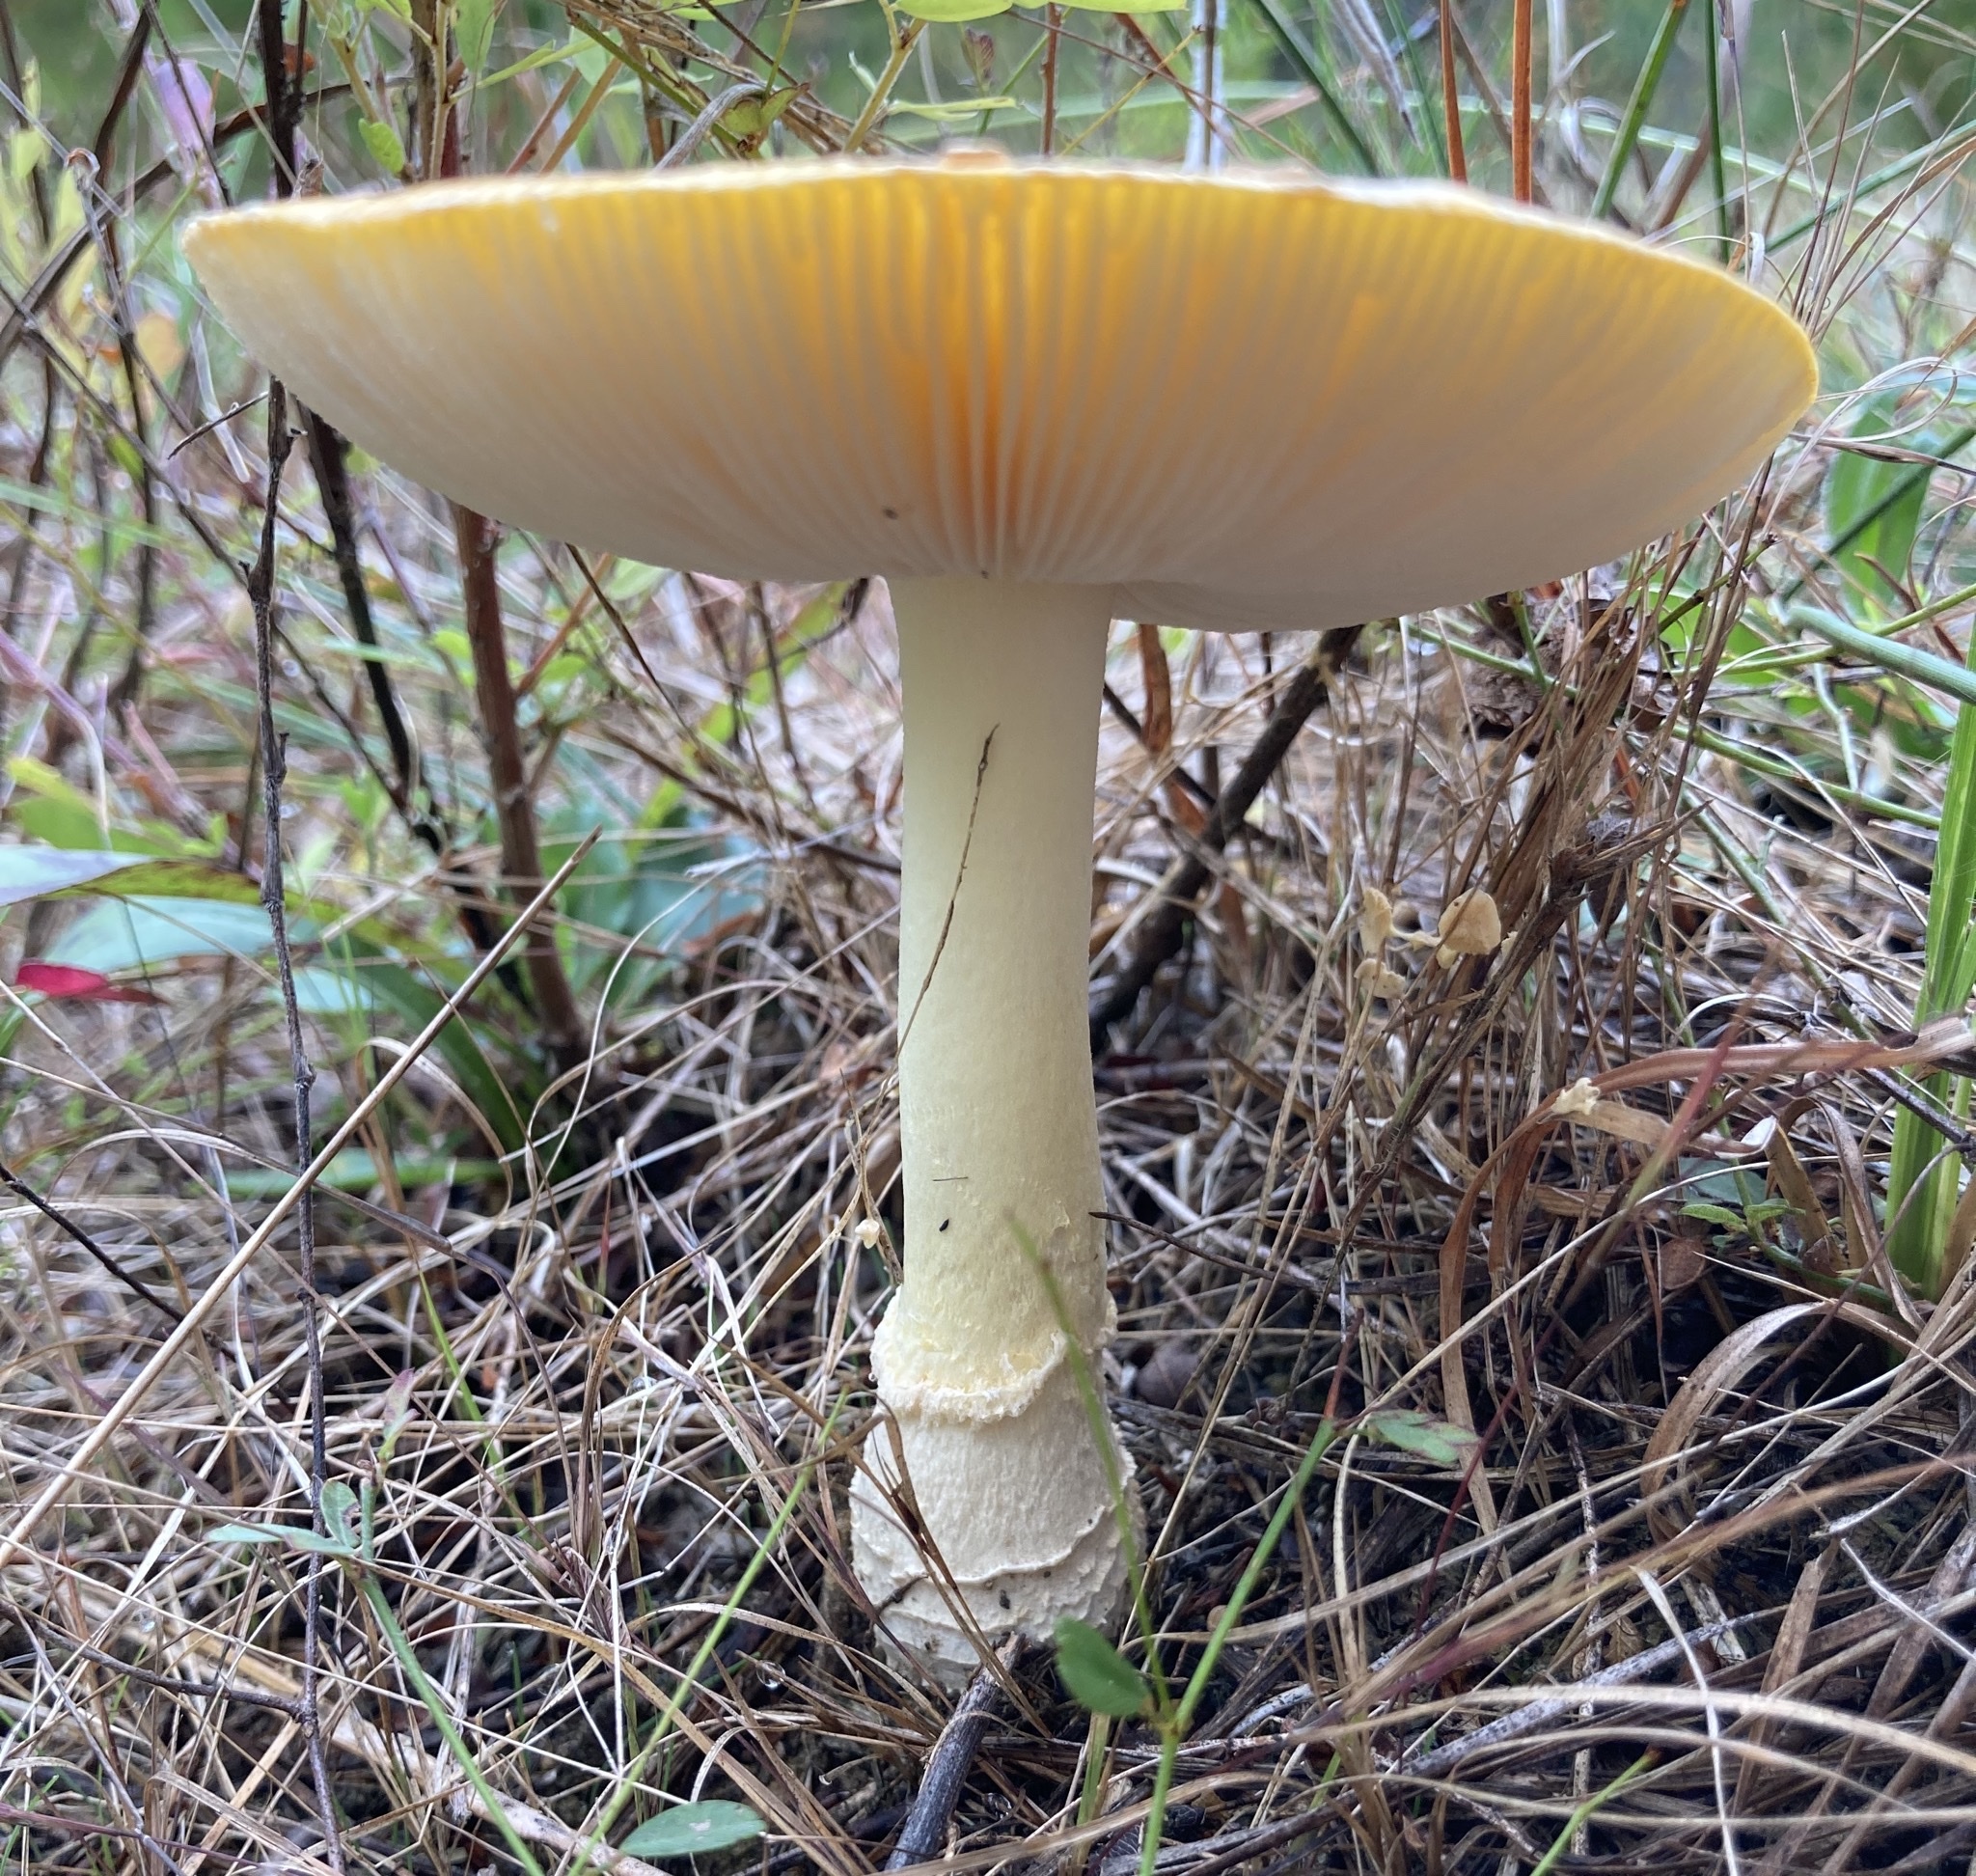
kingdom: Fungi
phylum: Basidiomycota
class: Agaricomycetes
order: Agaricales
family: Amanitaceae
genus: Amanita
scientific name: Amanita persicina
